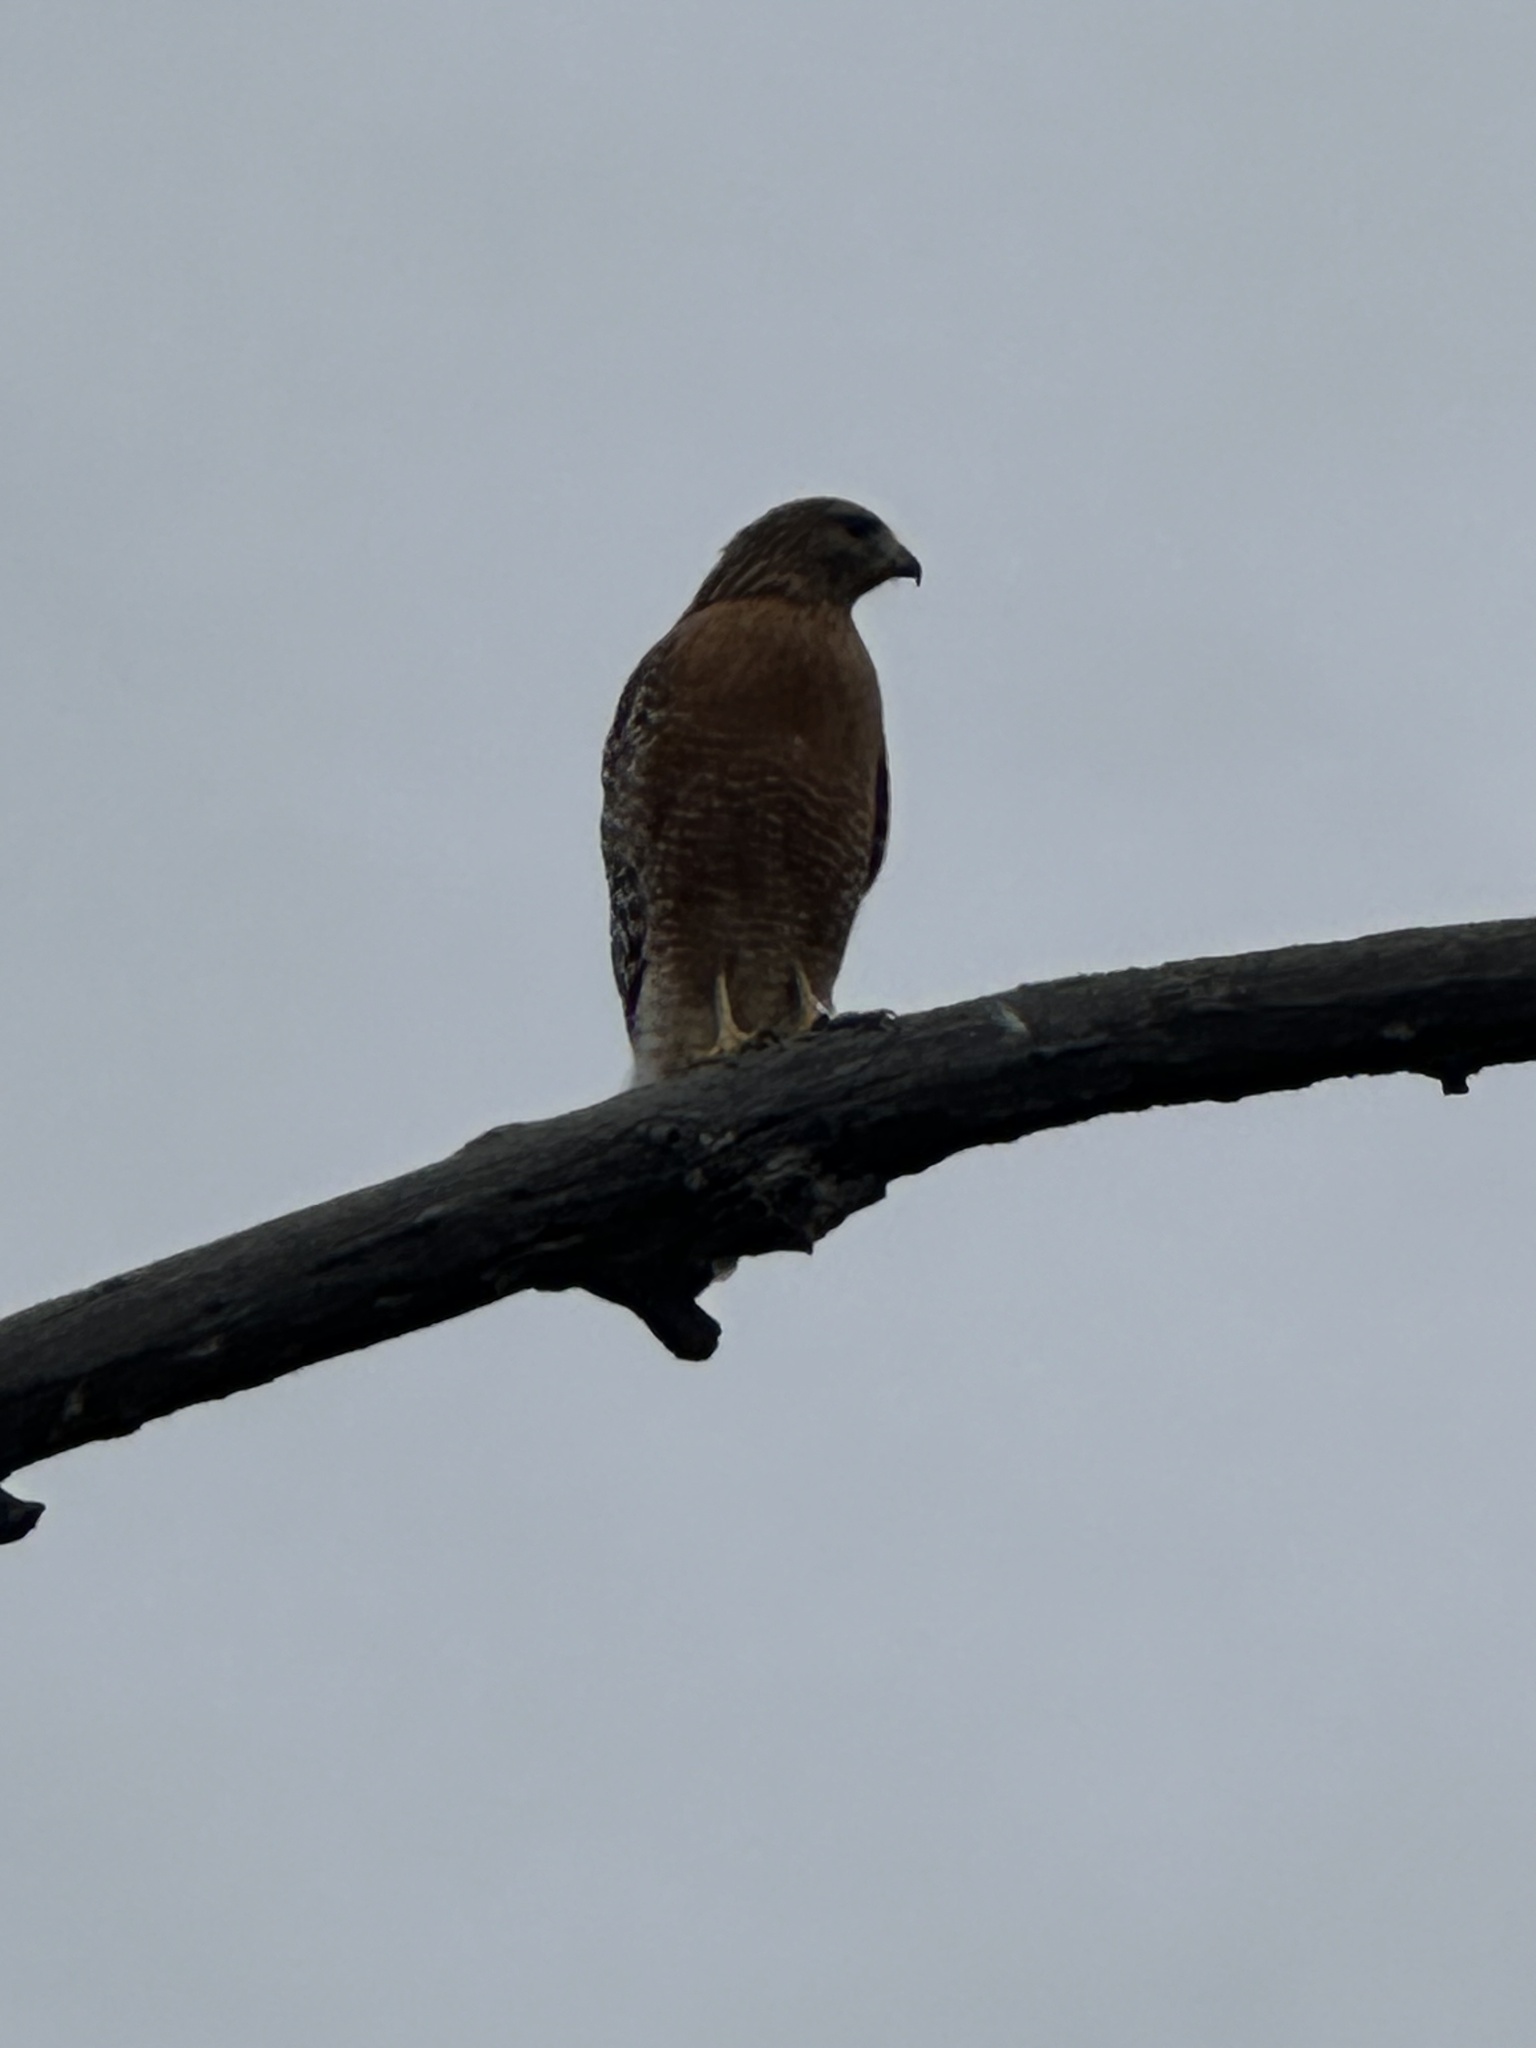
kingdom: Animalia
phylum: Chordata
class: Aves
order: Accipitriformes
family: Accipitridae
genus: Buteo
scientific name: Buteo lineatus
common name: Red-shouldered hawk
